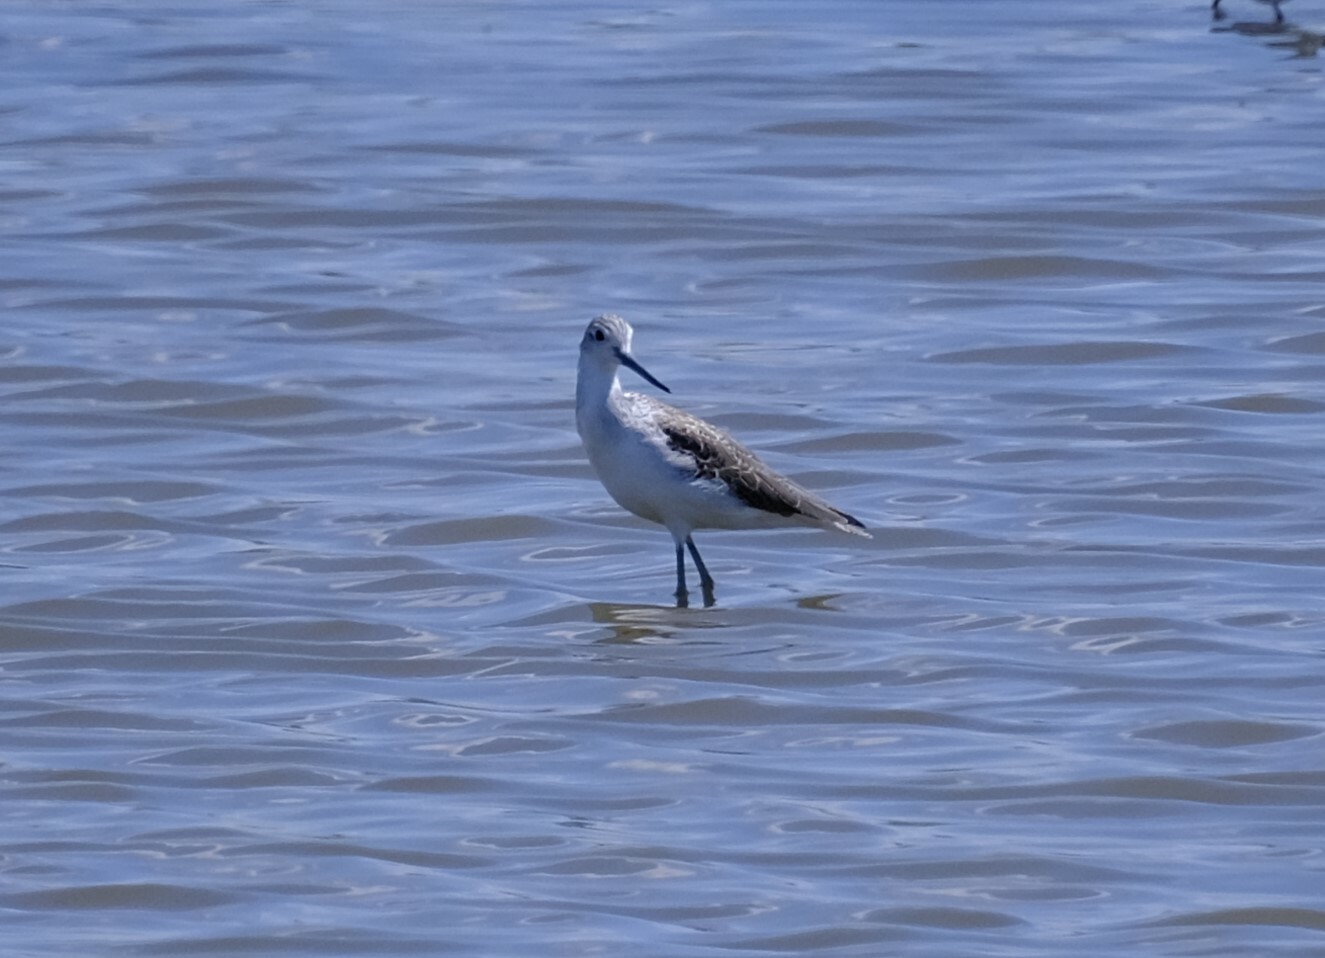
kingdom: Animalia
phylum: Chordata
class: Aves
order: Charadriiformes
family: Scolopacidae
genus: Tringa
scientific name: Tringa nebularia
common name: Common greenshank
